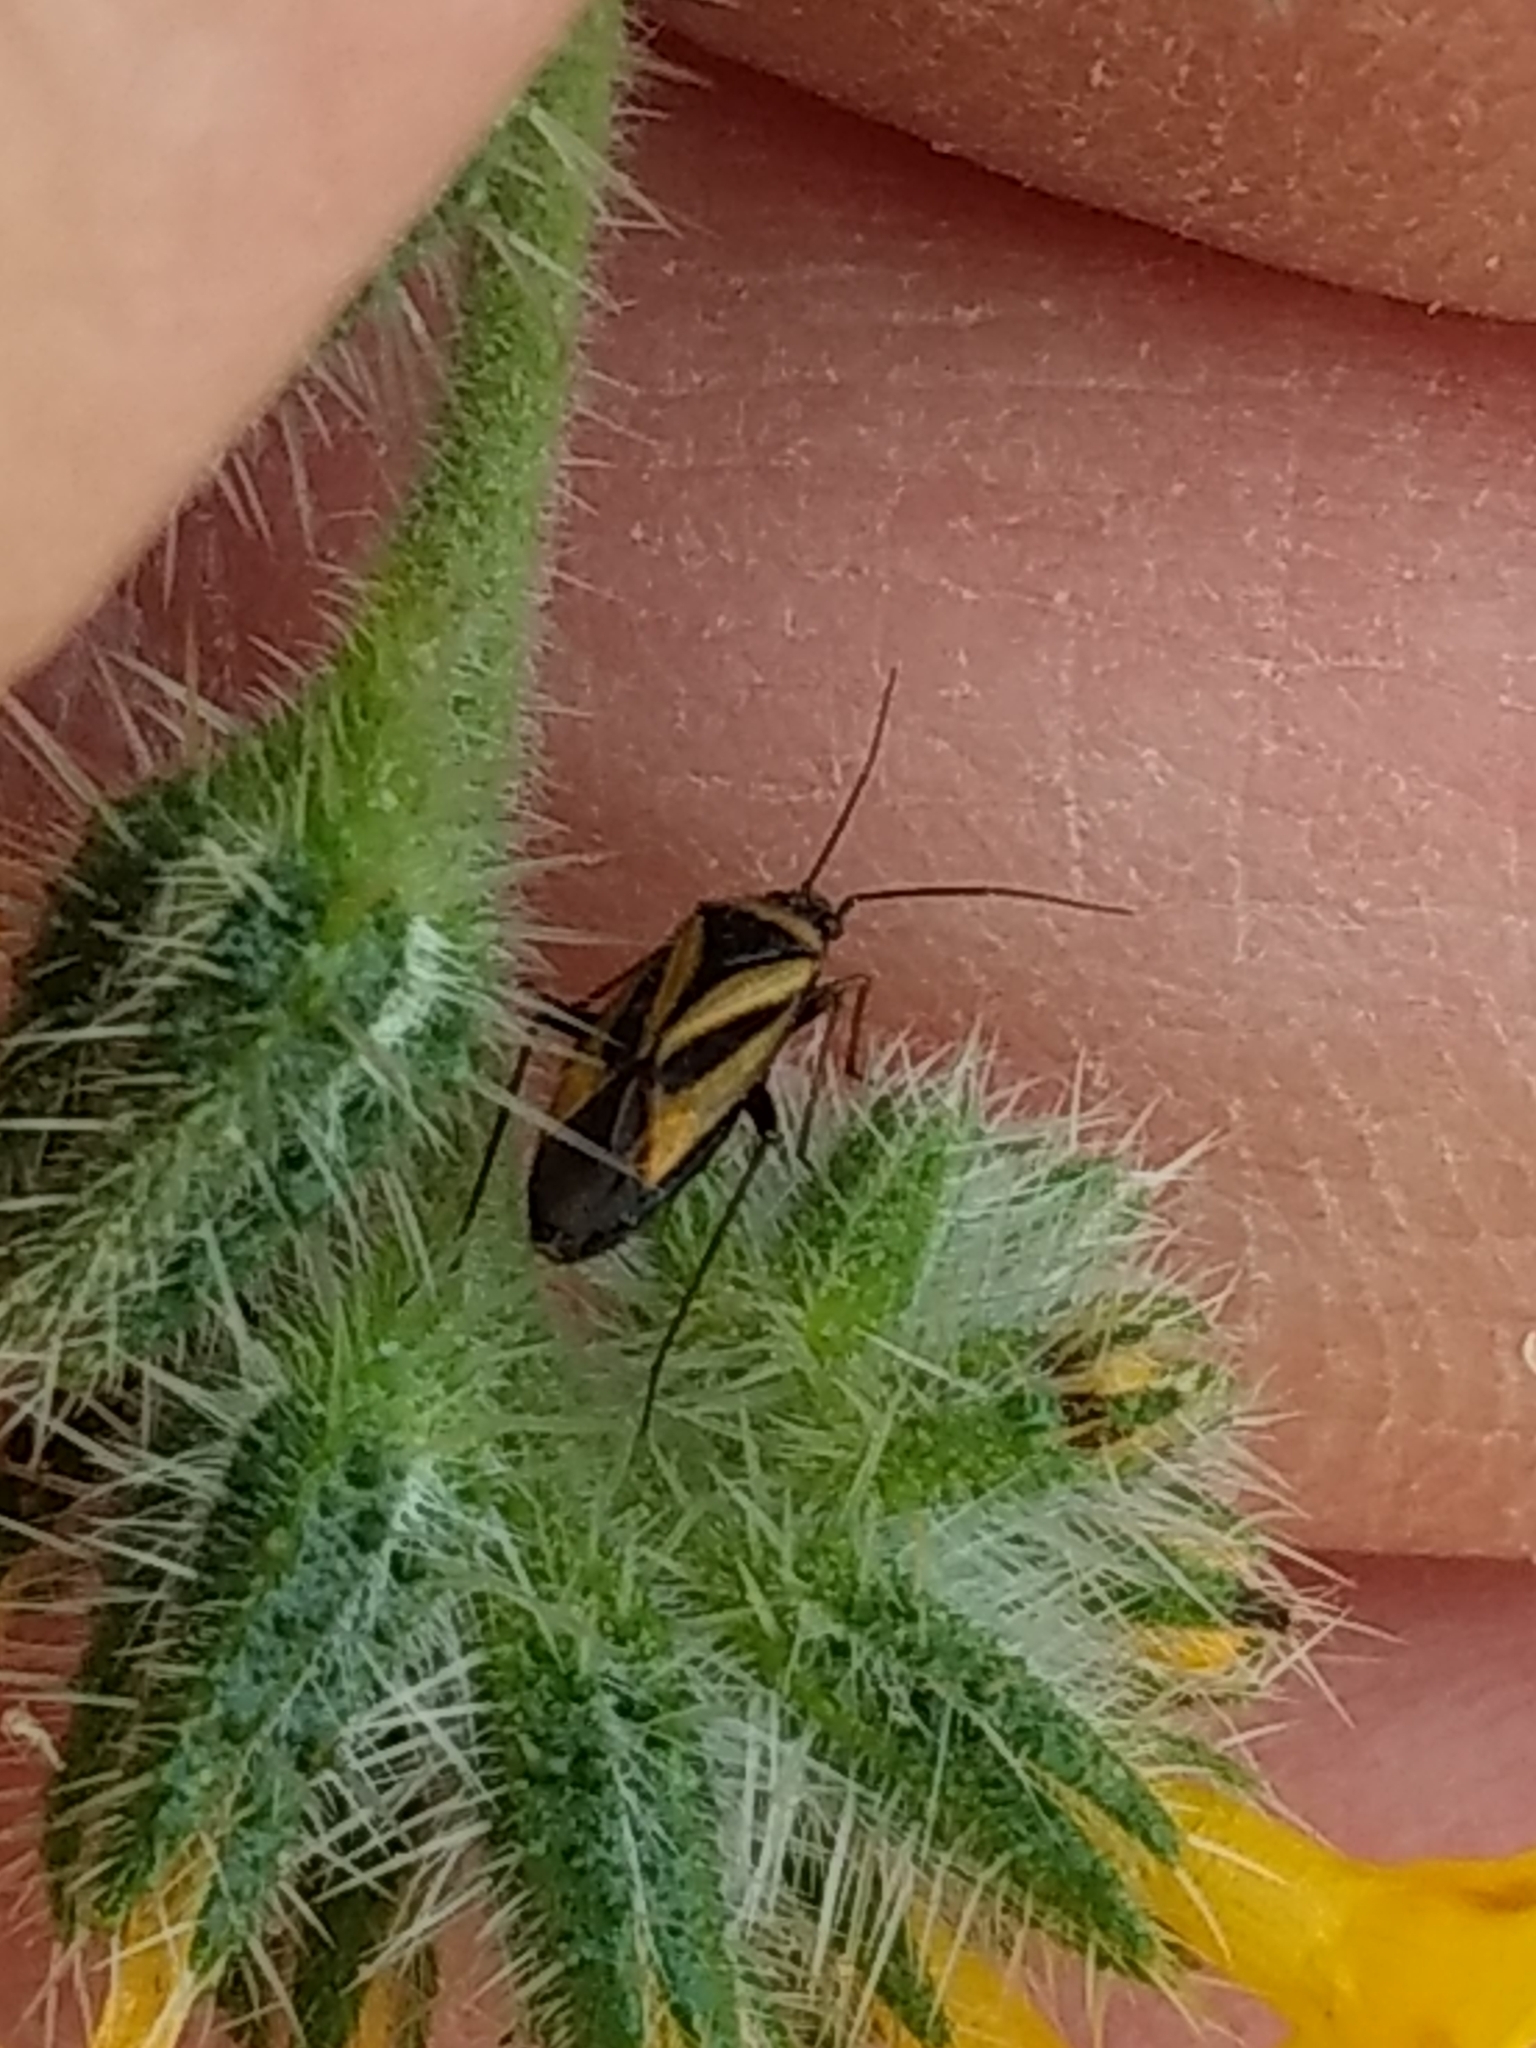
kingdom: Animalia
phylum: Arthropoda
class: Insecta
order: Hemiptera
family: Miridae
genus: Plagiognathus
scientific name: Plagiognathus moerens
